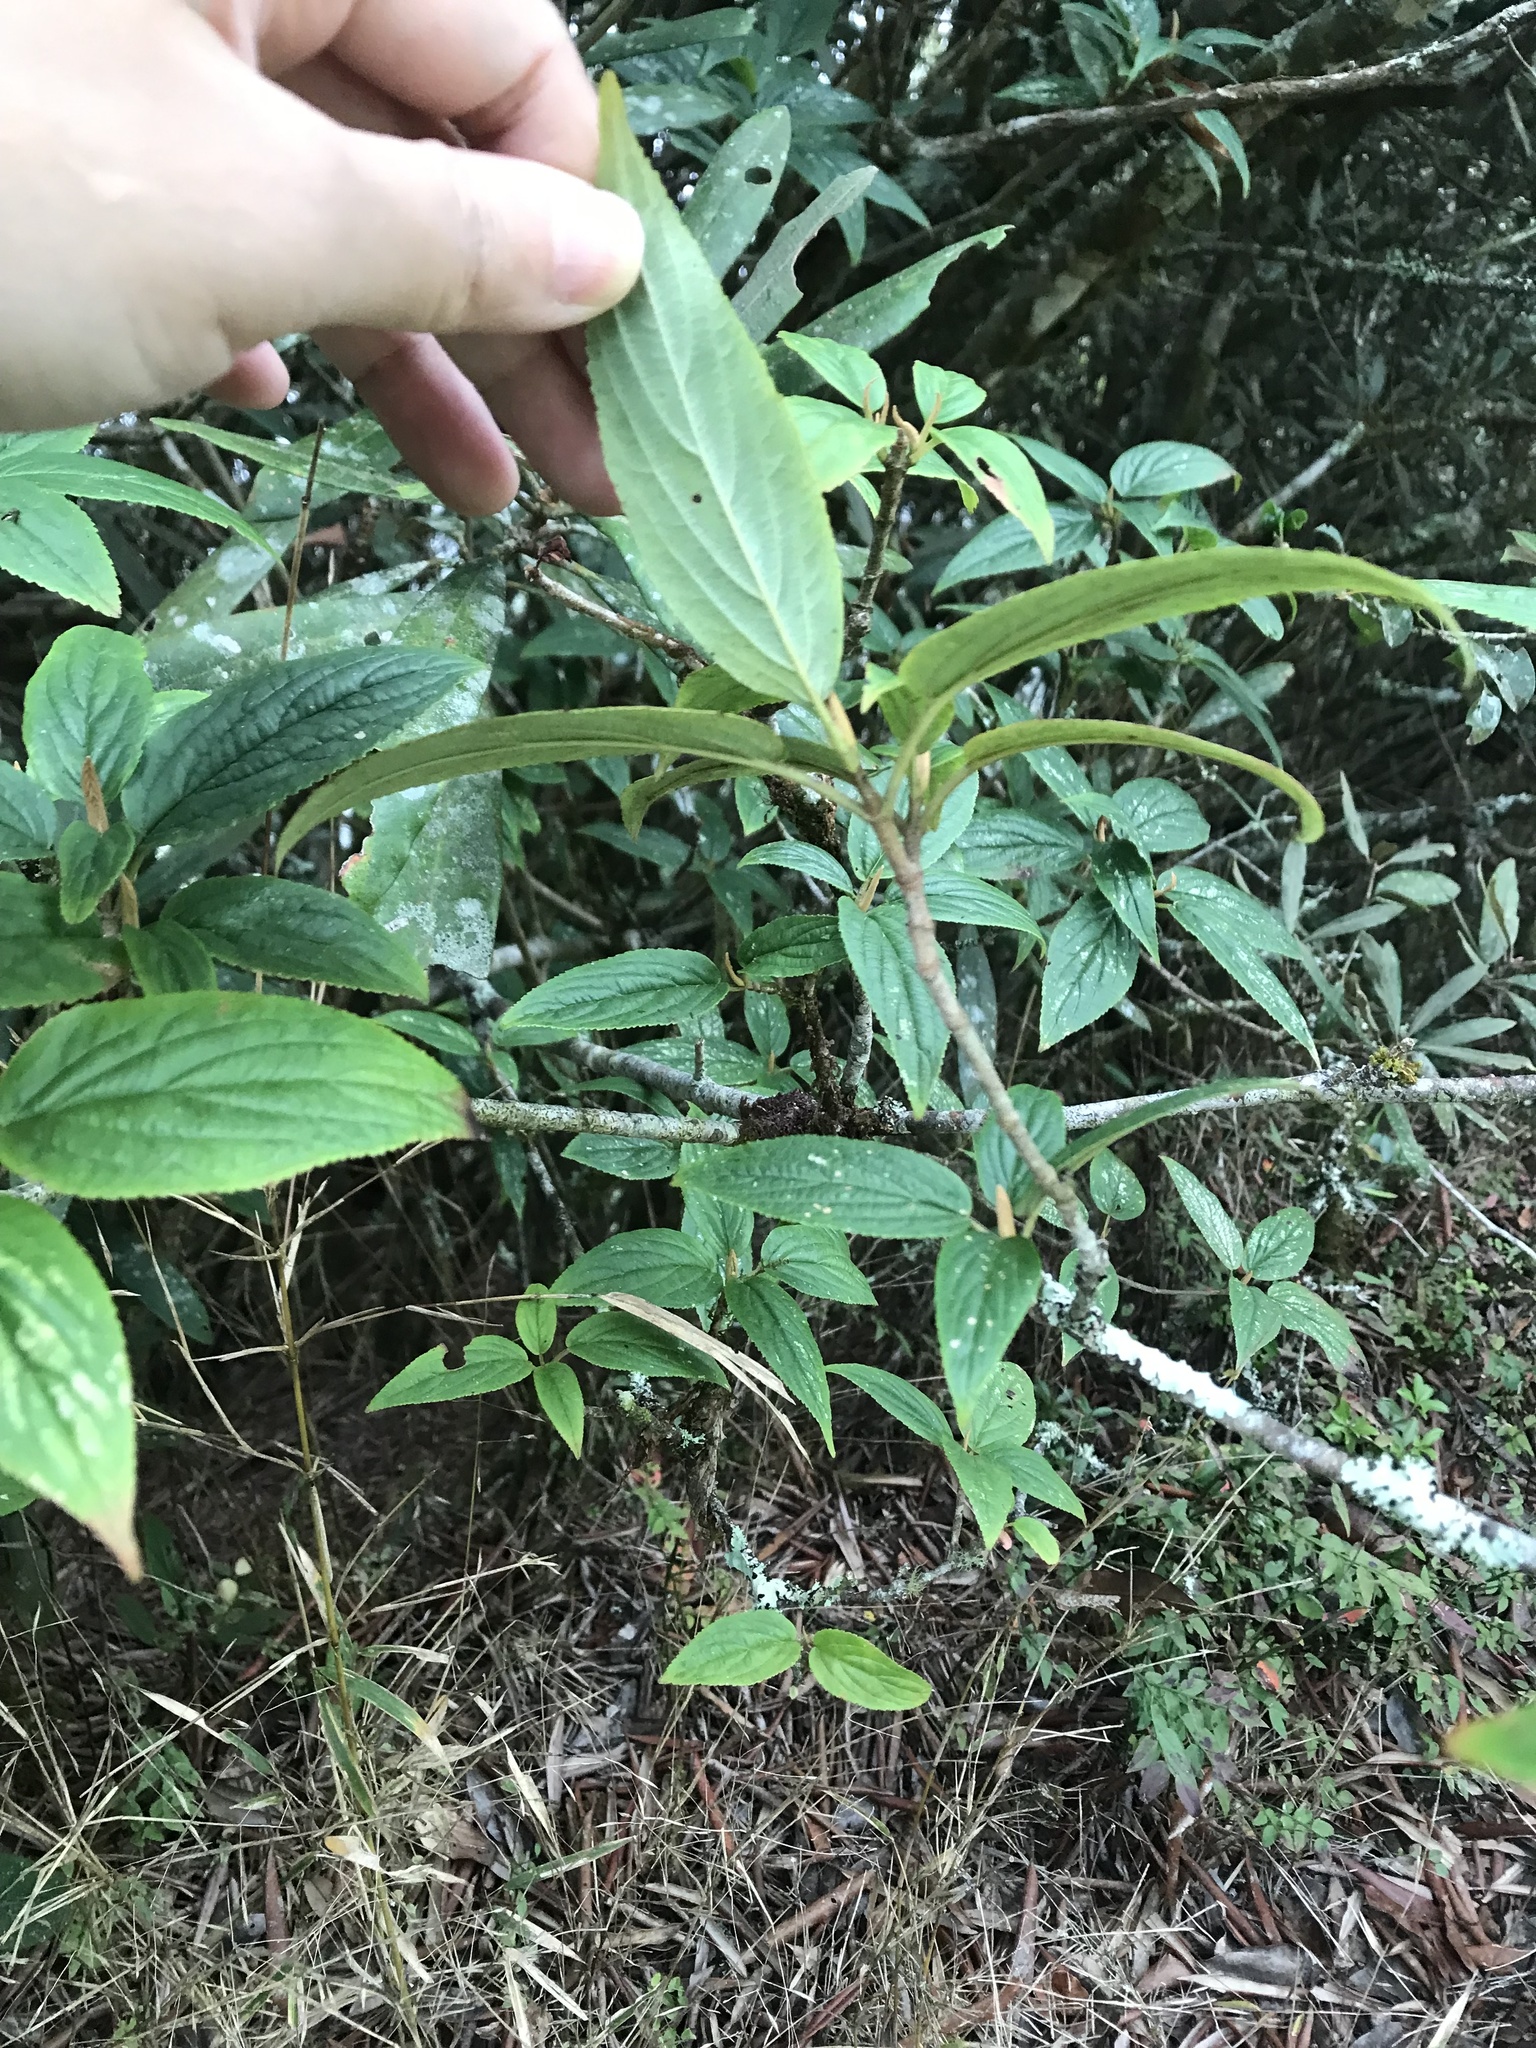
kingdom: Plantae
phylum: Tracheophyta
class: Magnoliopsida
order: Dipsacales
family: Viburnaceae
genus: Viburnum
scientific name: Viburnum urceolatum
